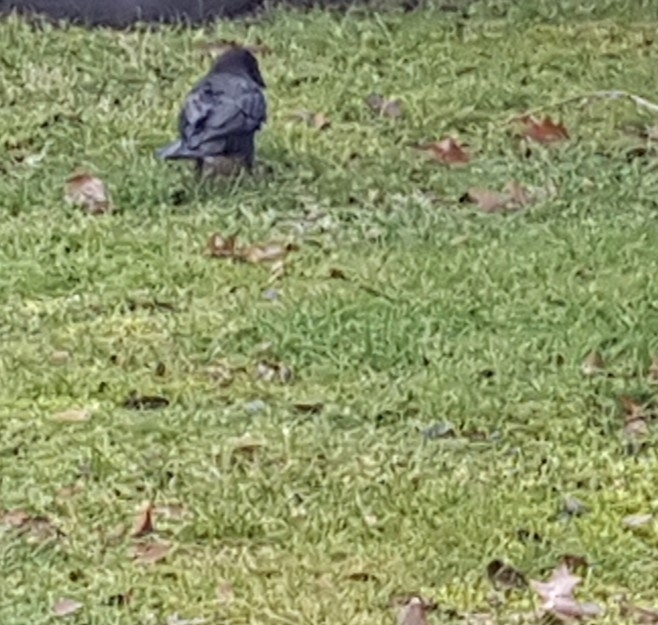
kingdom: Animalia
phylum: Chordata
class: Aves
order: Passeriformes
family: Corvidae
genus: Corvus
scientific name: Corvus brachyrhynchos
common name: American crow
